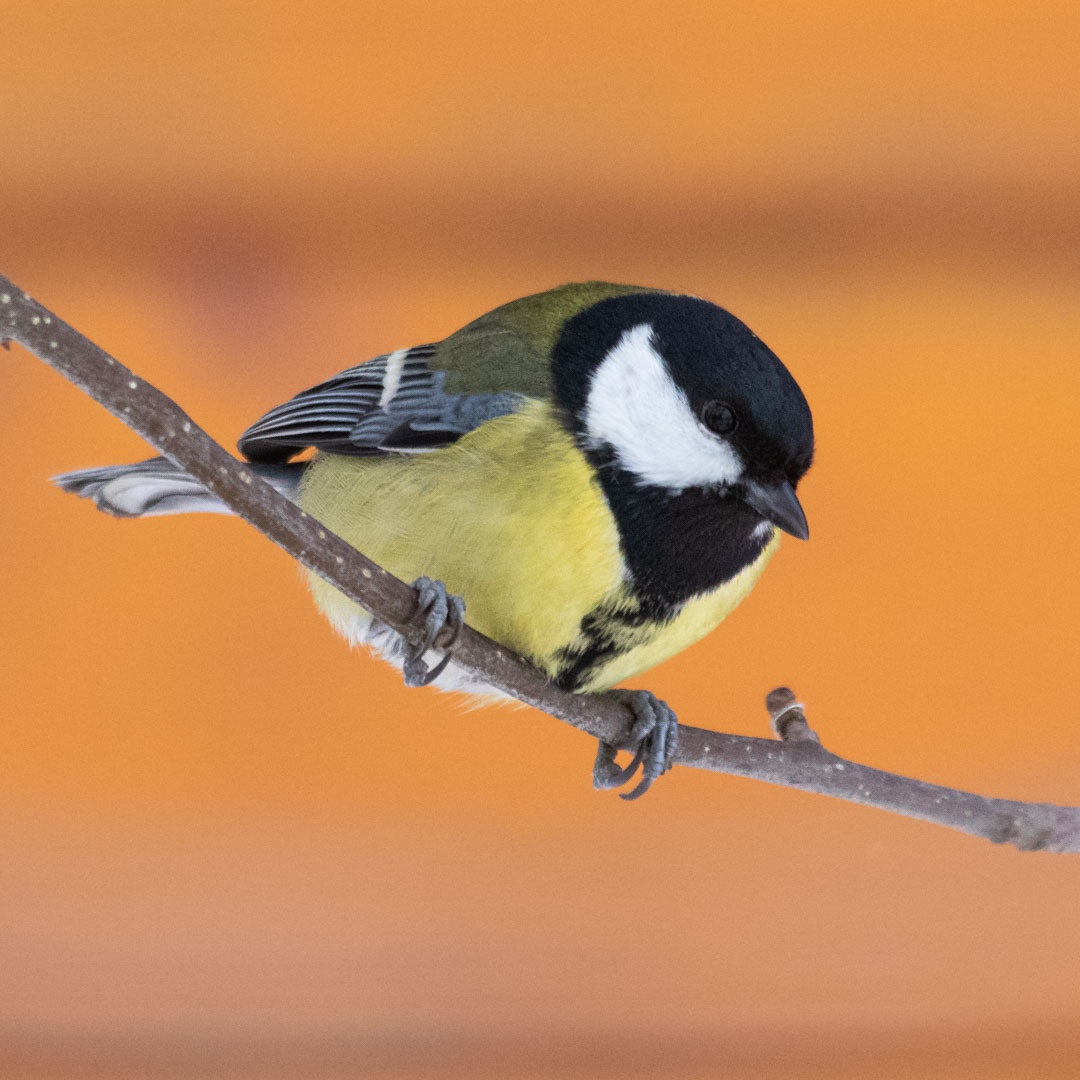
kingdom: Animalia
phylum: Chordata
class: Aves
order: Passeriformes
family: Paridae
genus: Parus
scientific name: Parus major
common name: Great tit
